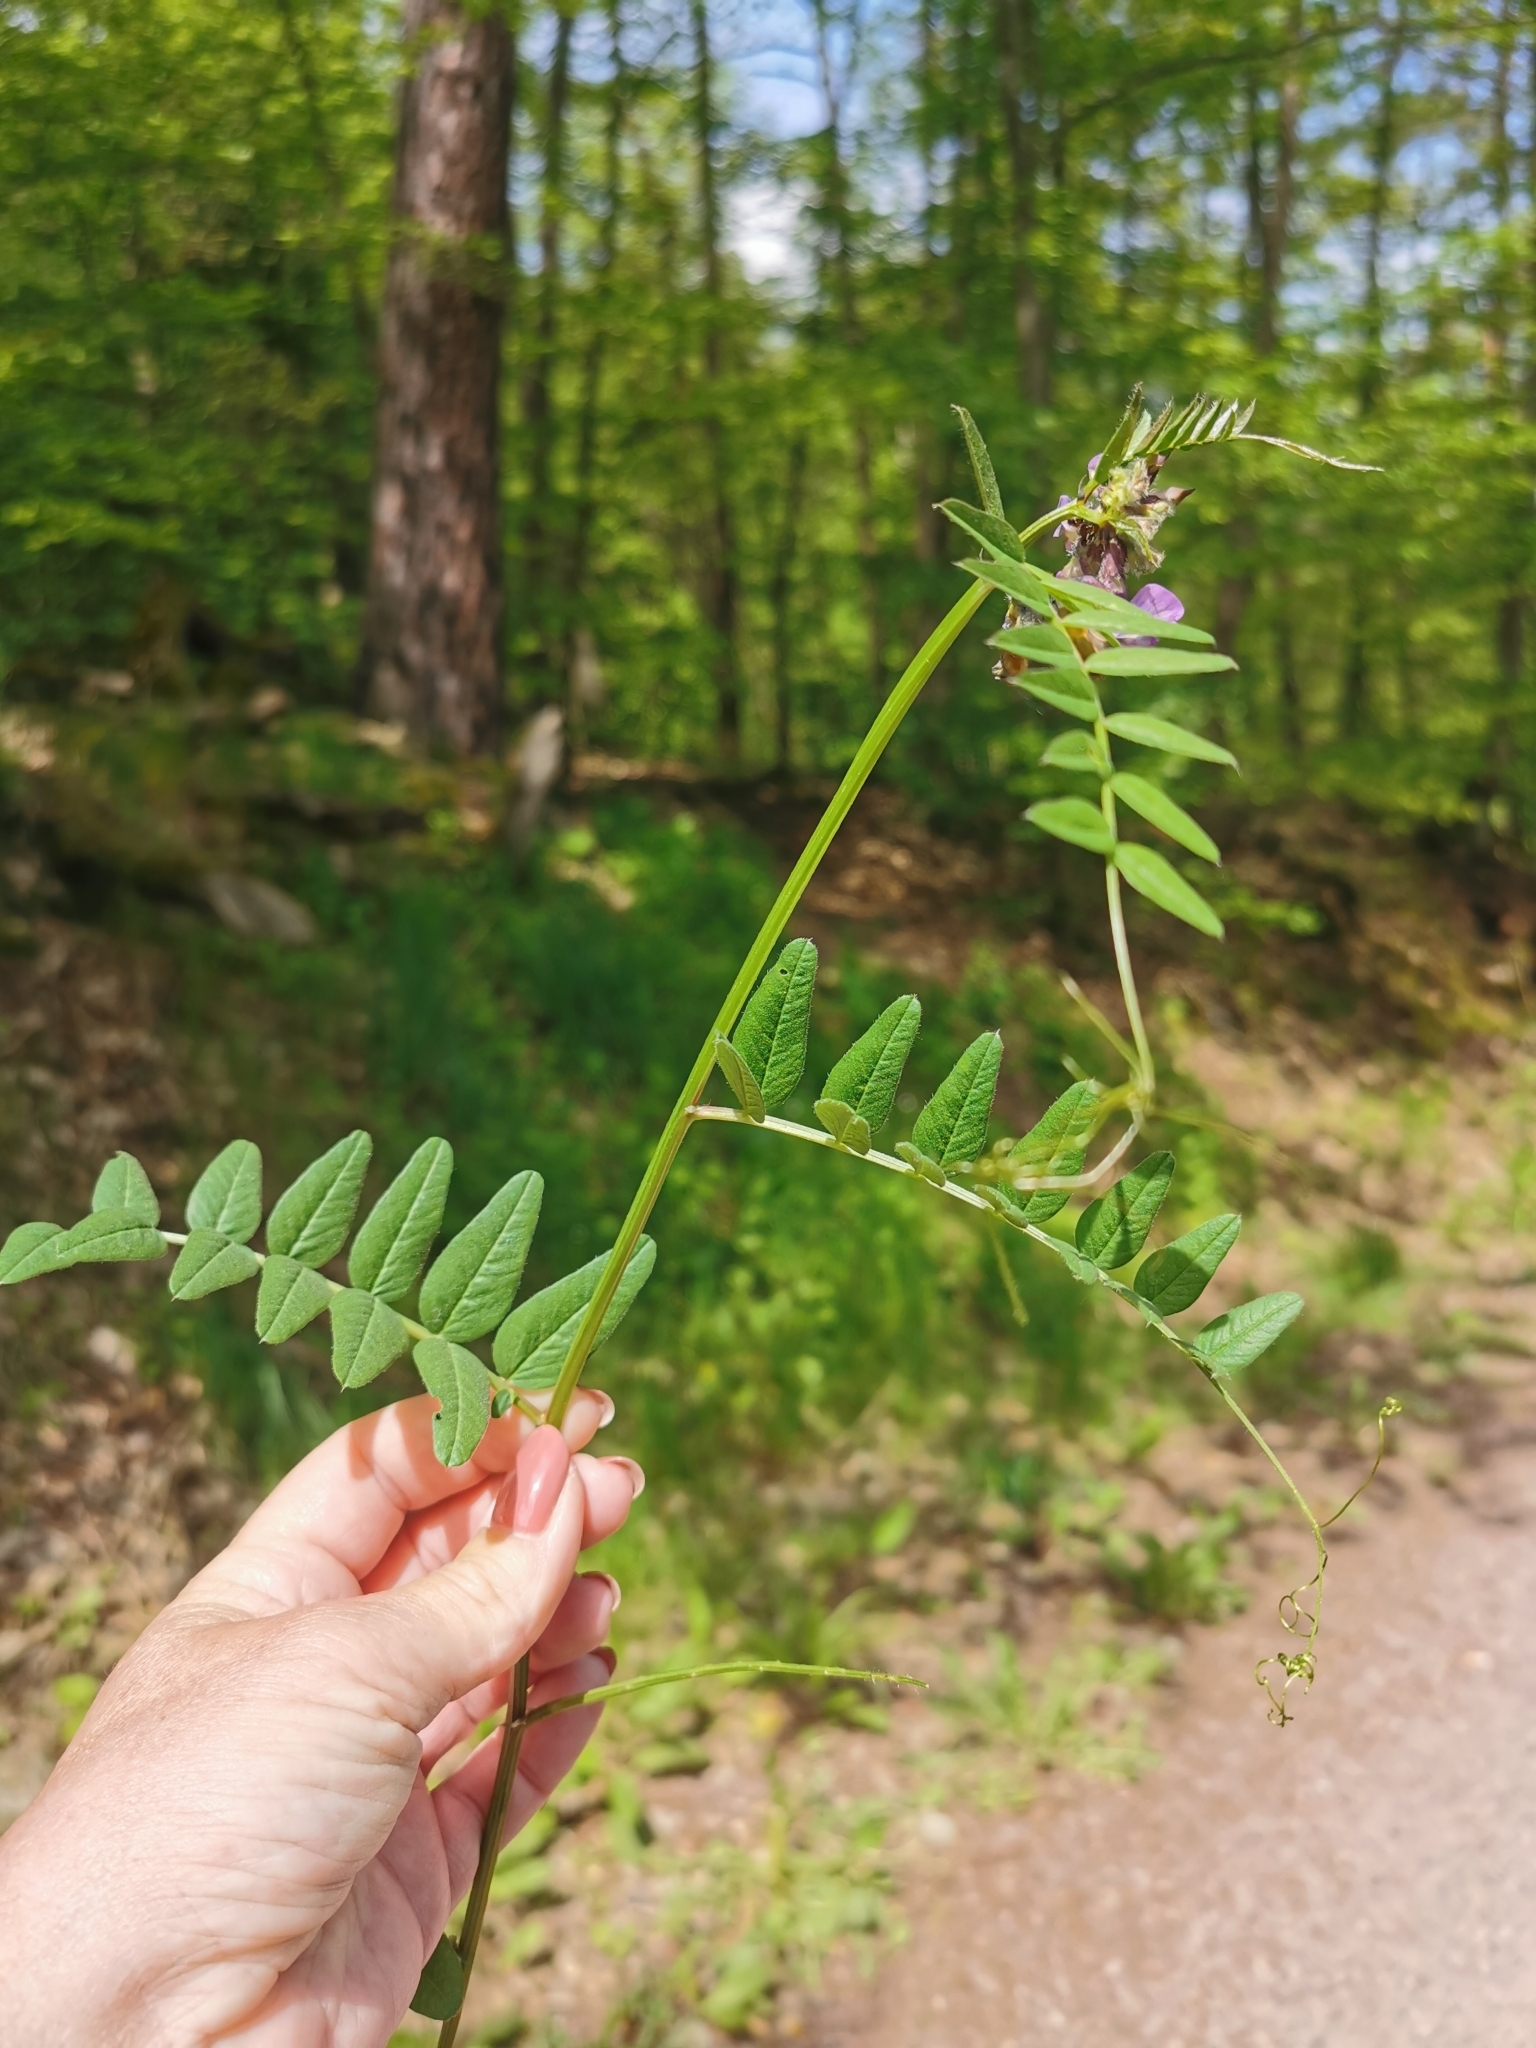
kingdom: Plantae
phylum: Tracheophyta
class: Magnoliopsida
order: Fabales
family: Fabaceae
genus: Vicia
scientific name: Vicia sepium
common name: Bush vetch
